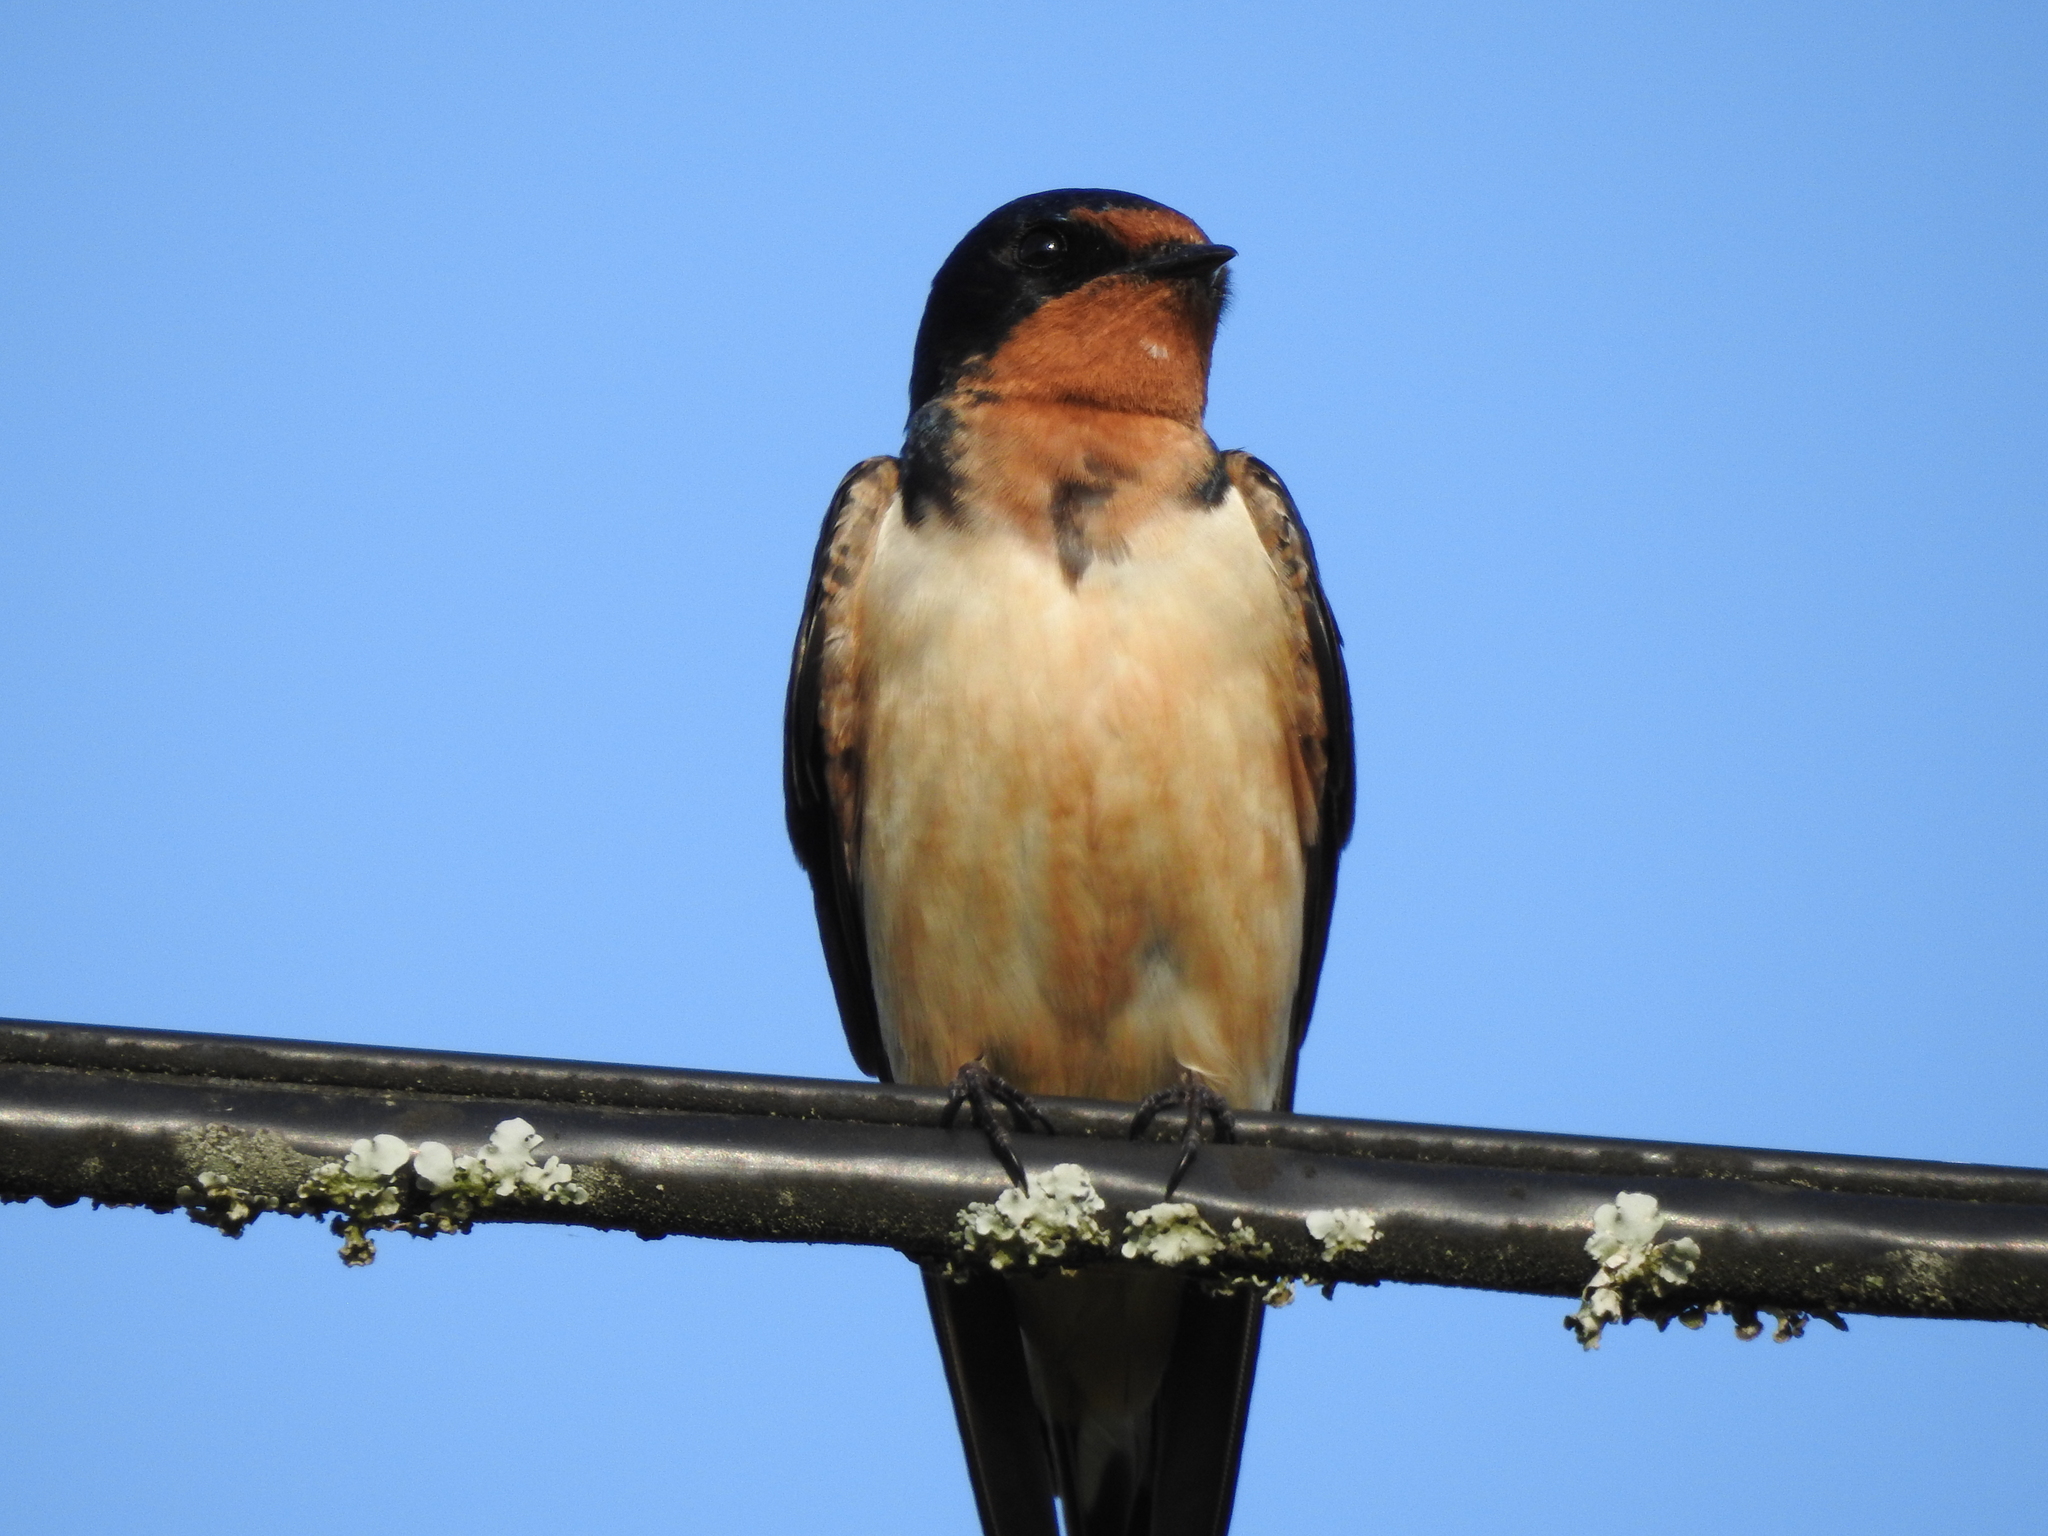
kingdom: Animalia
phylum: Chordata
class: Aves
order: Passeriformes
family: Hirundinidae
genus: Hirundo
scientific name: Hirundo rustica
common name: Barn swallow
